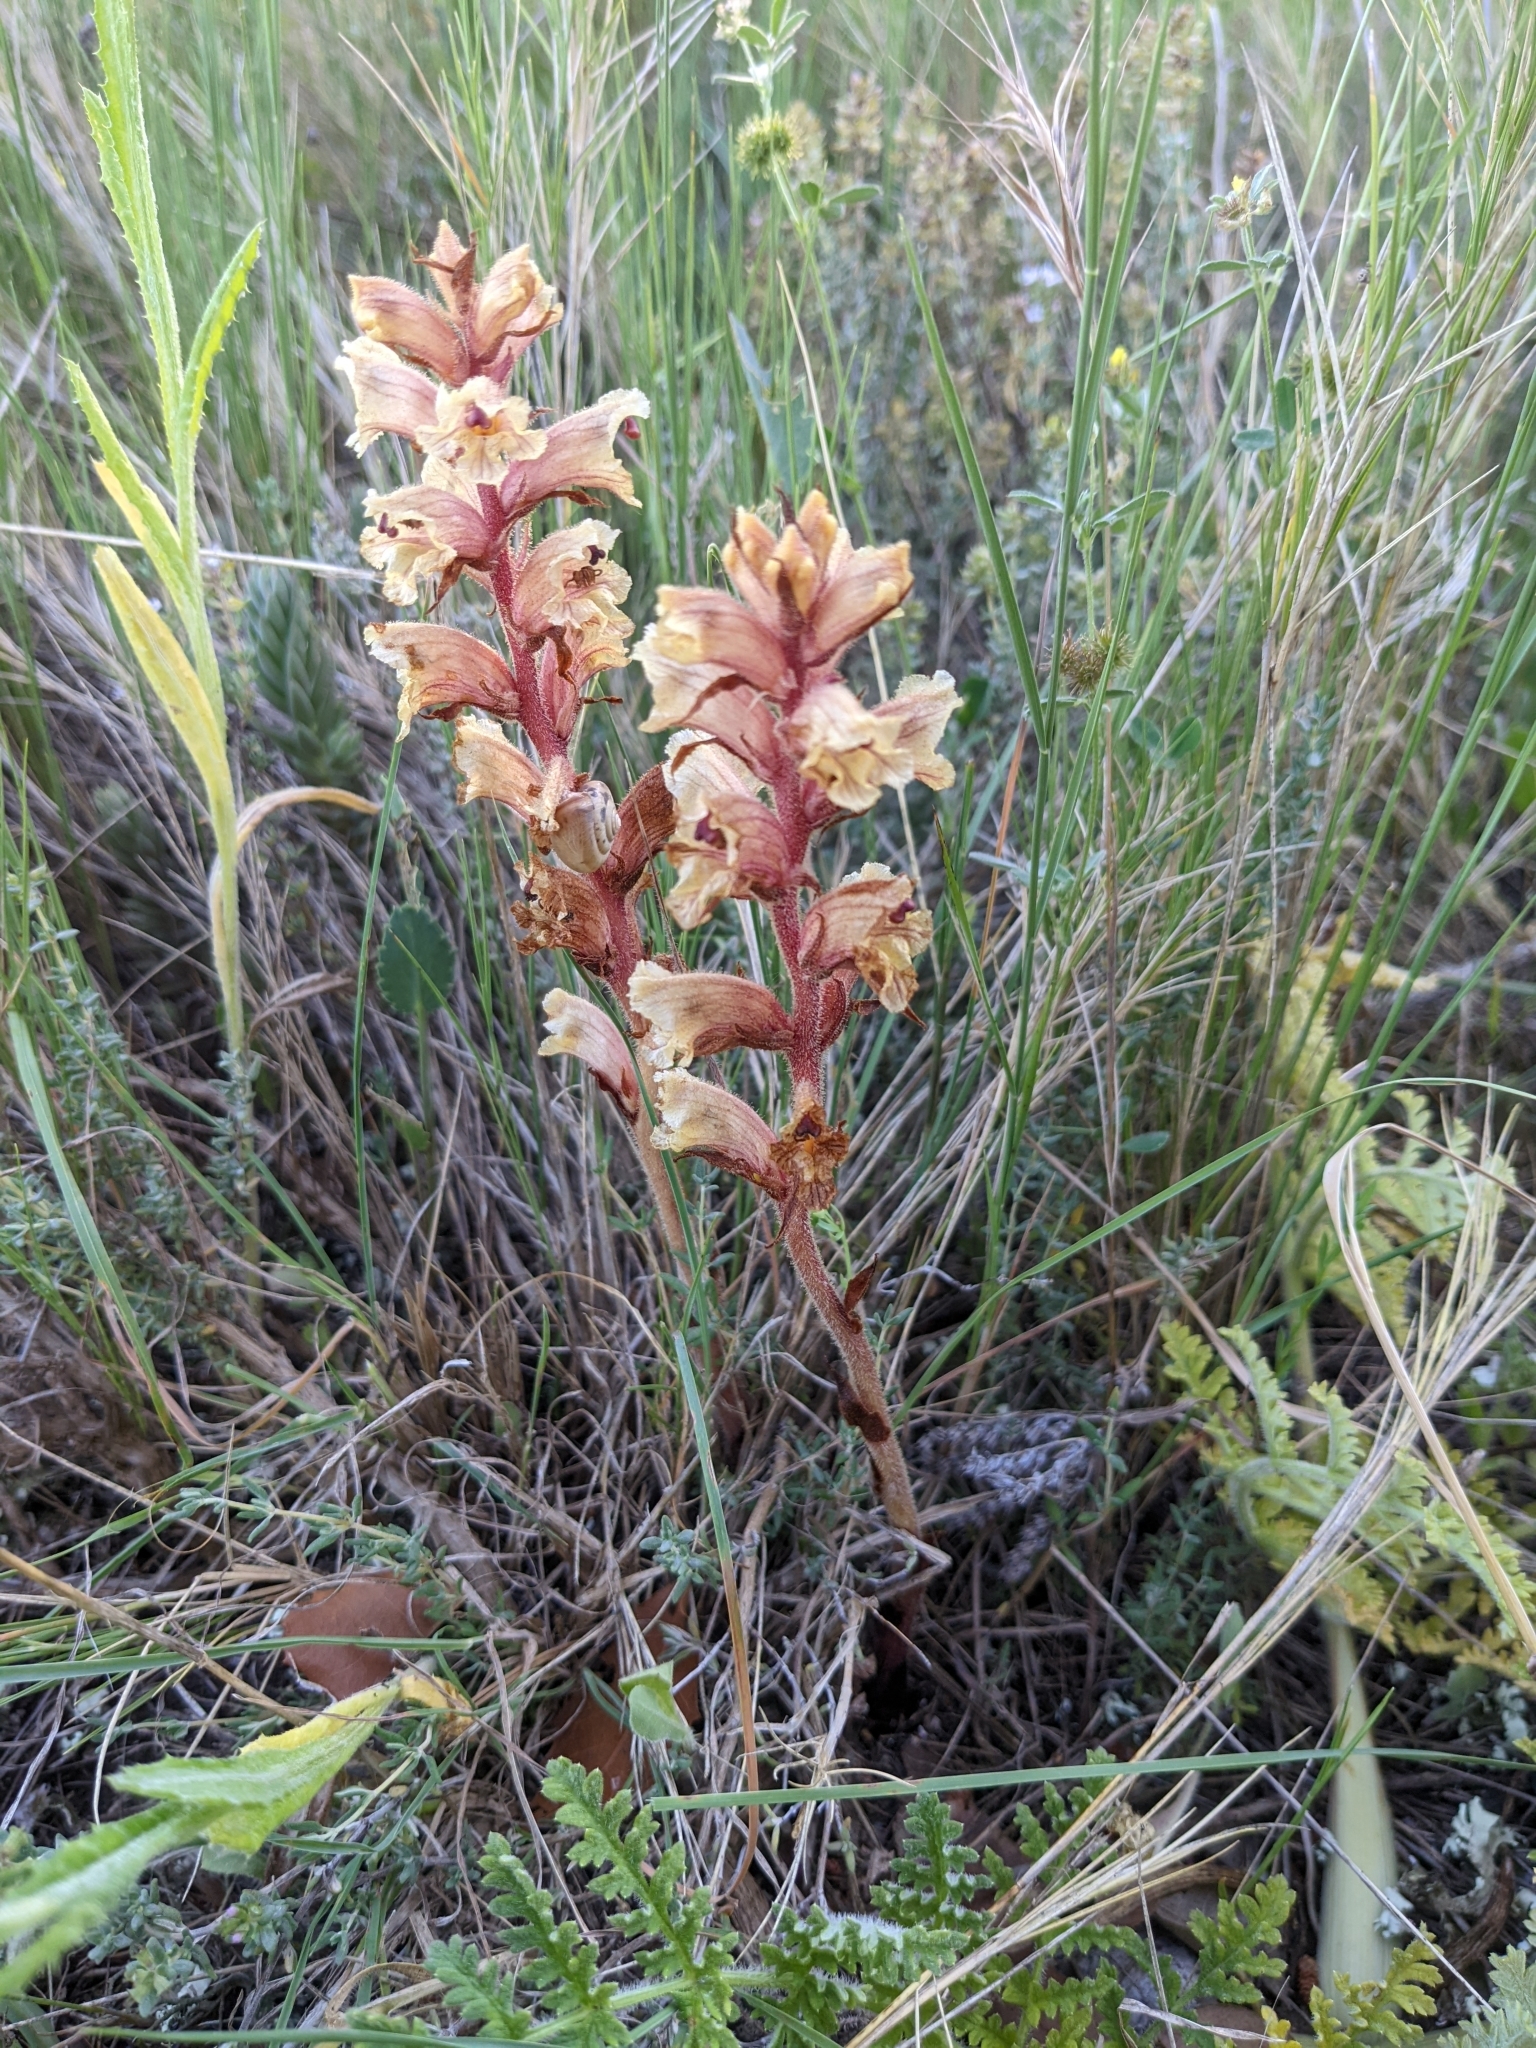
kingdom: Plantae
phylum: Tracheophyta
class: Magnoliopsida
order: Lamiales
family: Orobanchaceae
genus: Orobanche
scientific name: Orobanche alba
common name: Thyme broomrape
